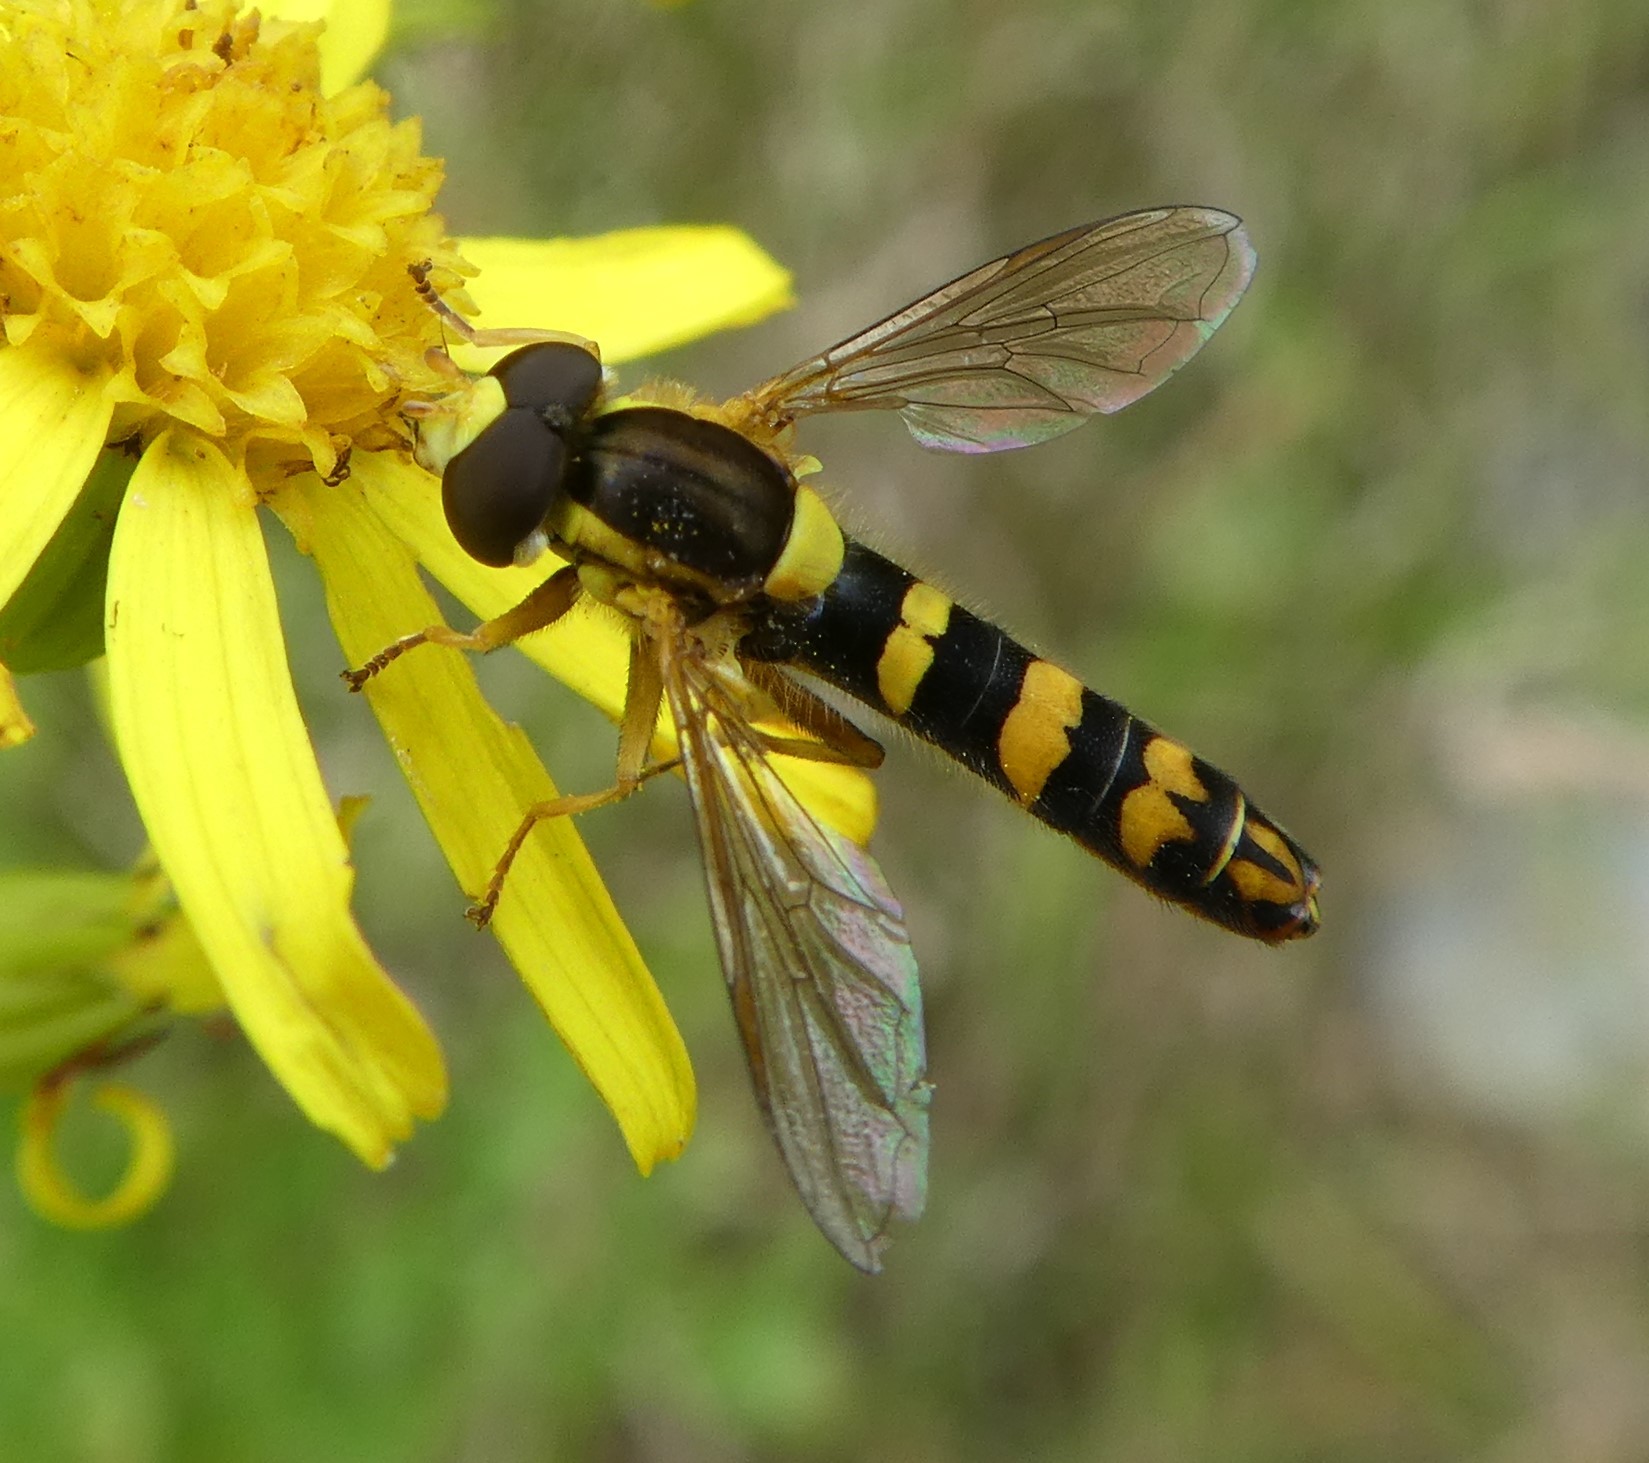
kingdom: Animalia
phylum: Arthropoda
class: Insecta
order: Diptera
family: Syrphidae
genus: Sphaerophoria
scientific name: Sphaerophoria
